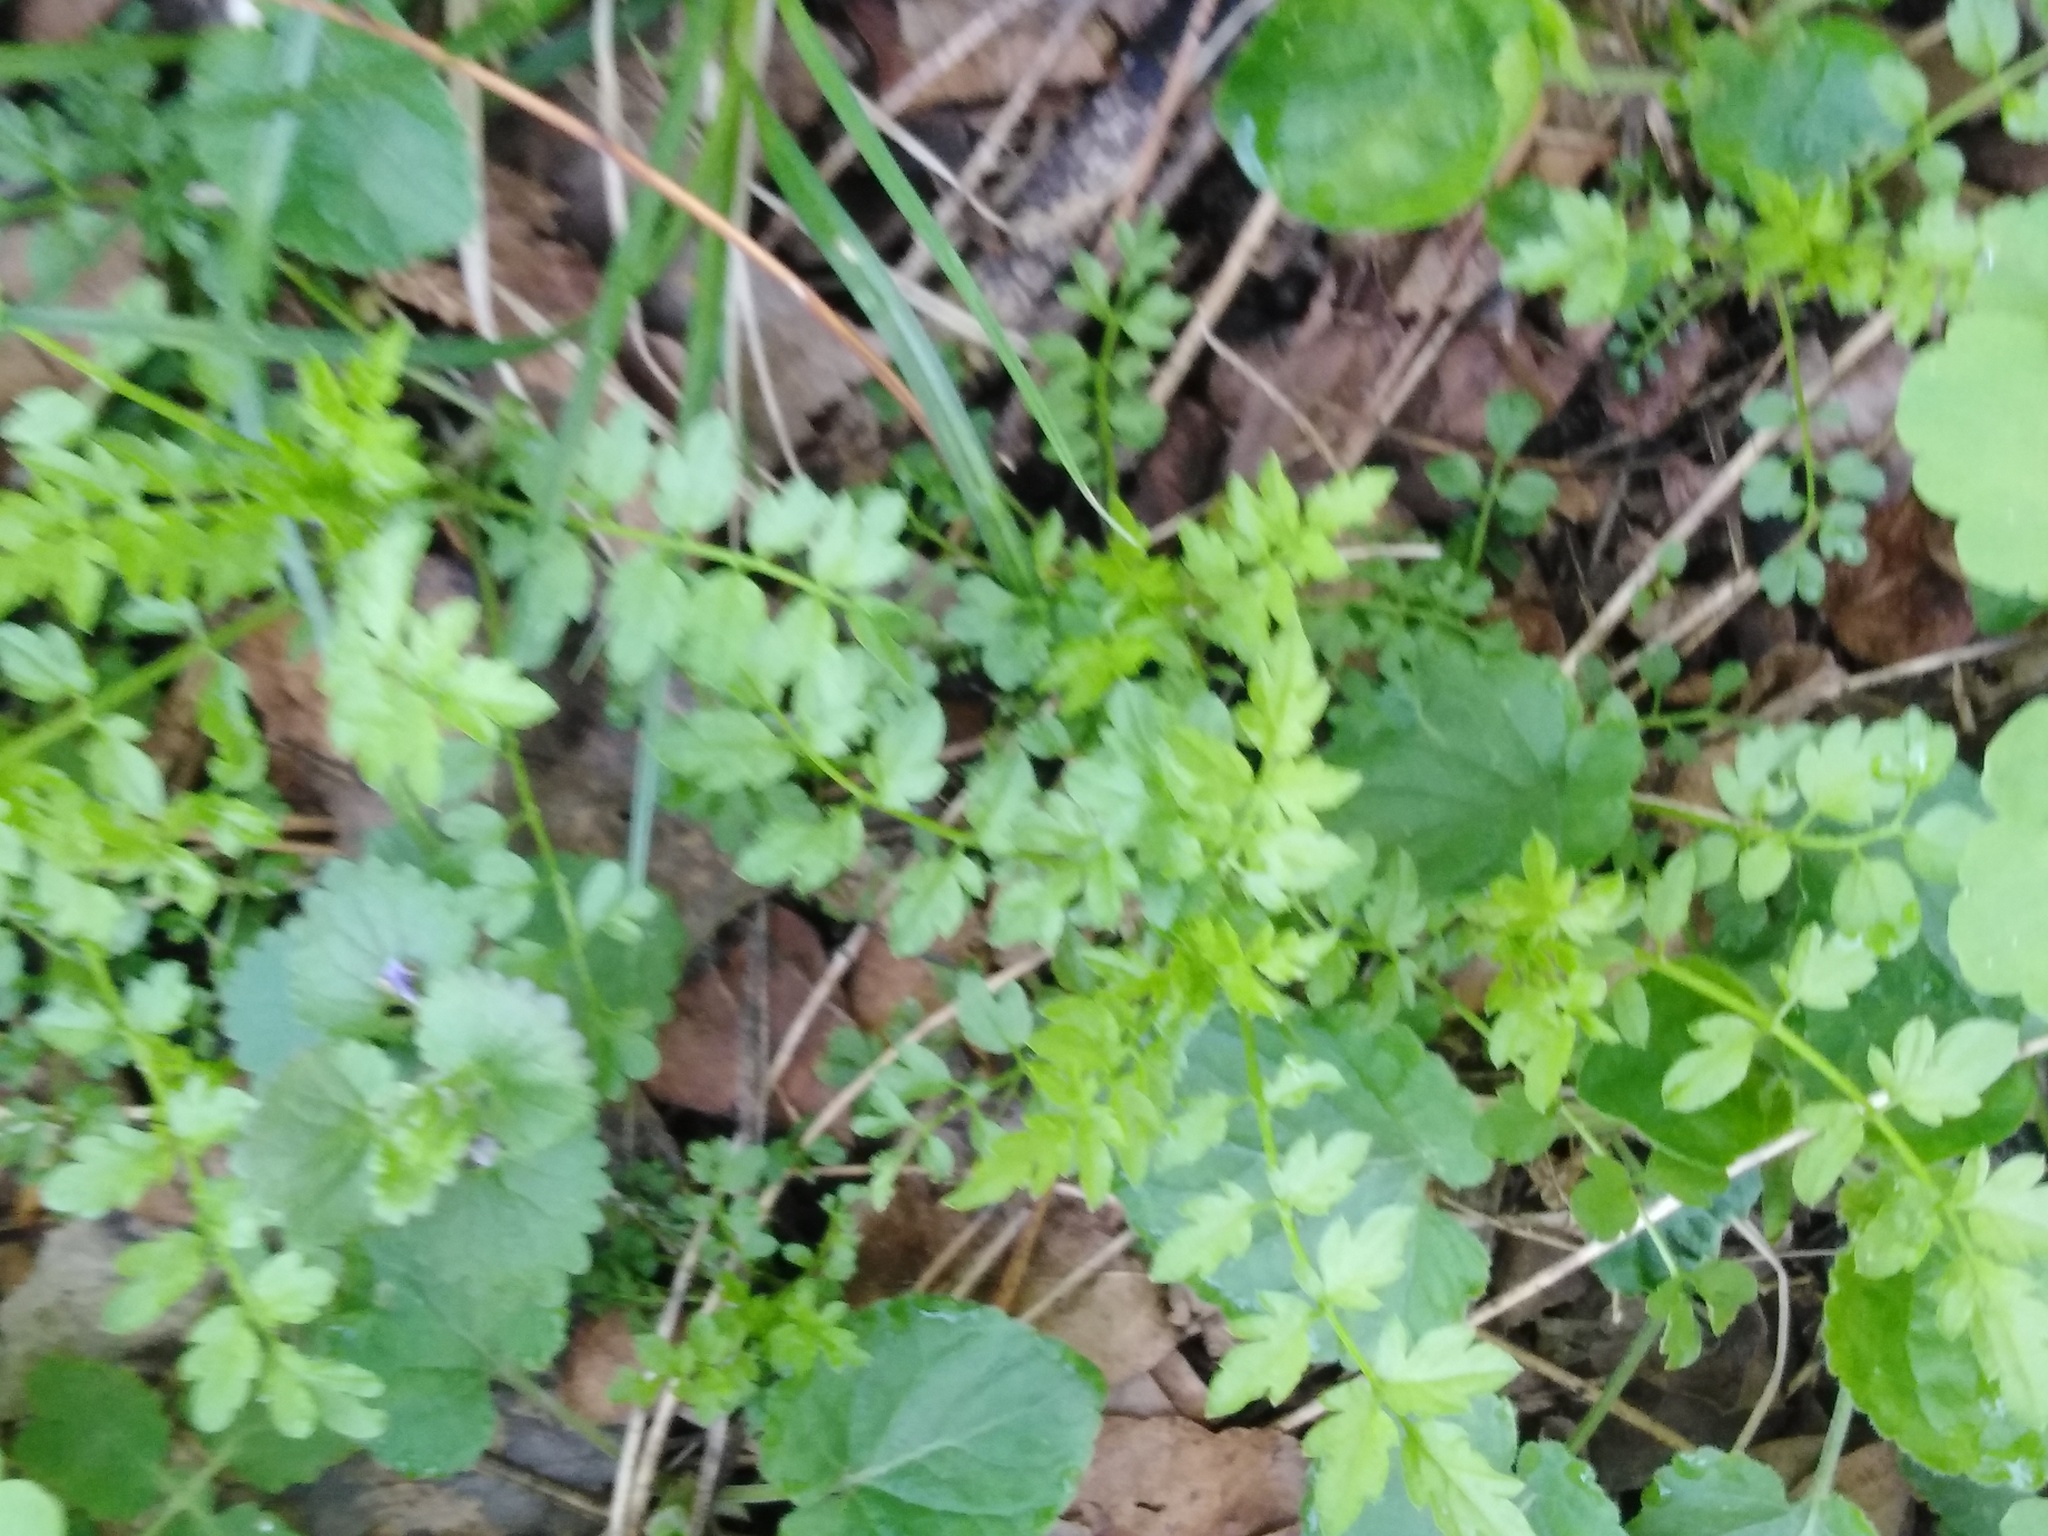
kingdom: Plantae
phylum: Tracheophyta
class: Magnoliopsida
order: Brassicales
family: Brassicaceae
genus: Cardamine
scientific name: Cardamine impatiens
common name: Narrow-leaved bitter-cress
